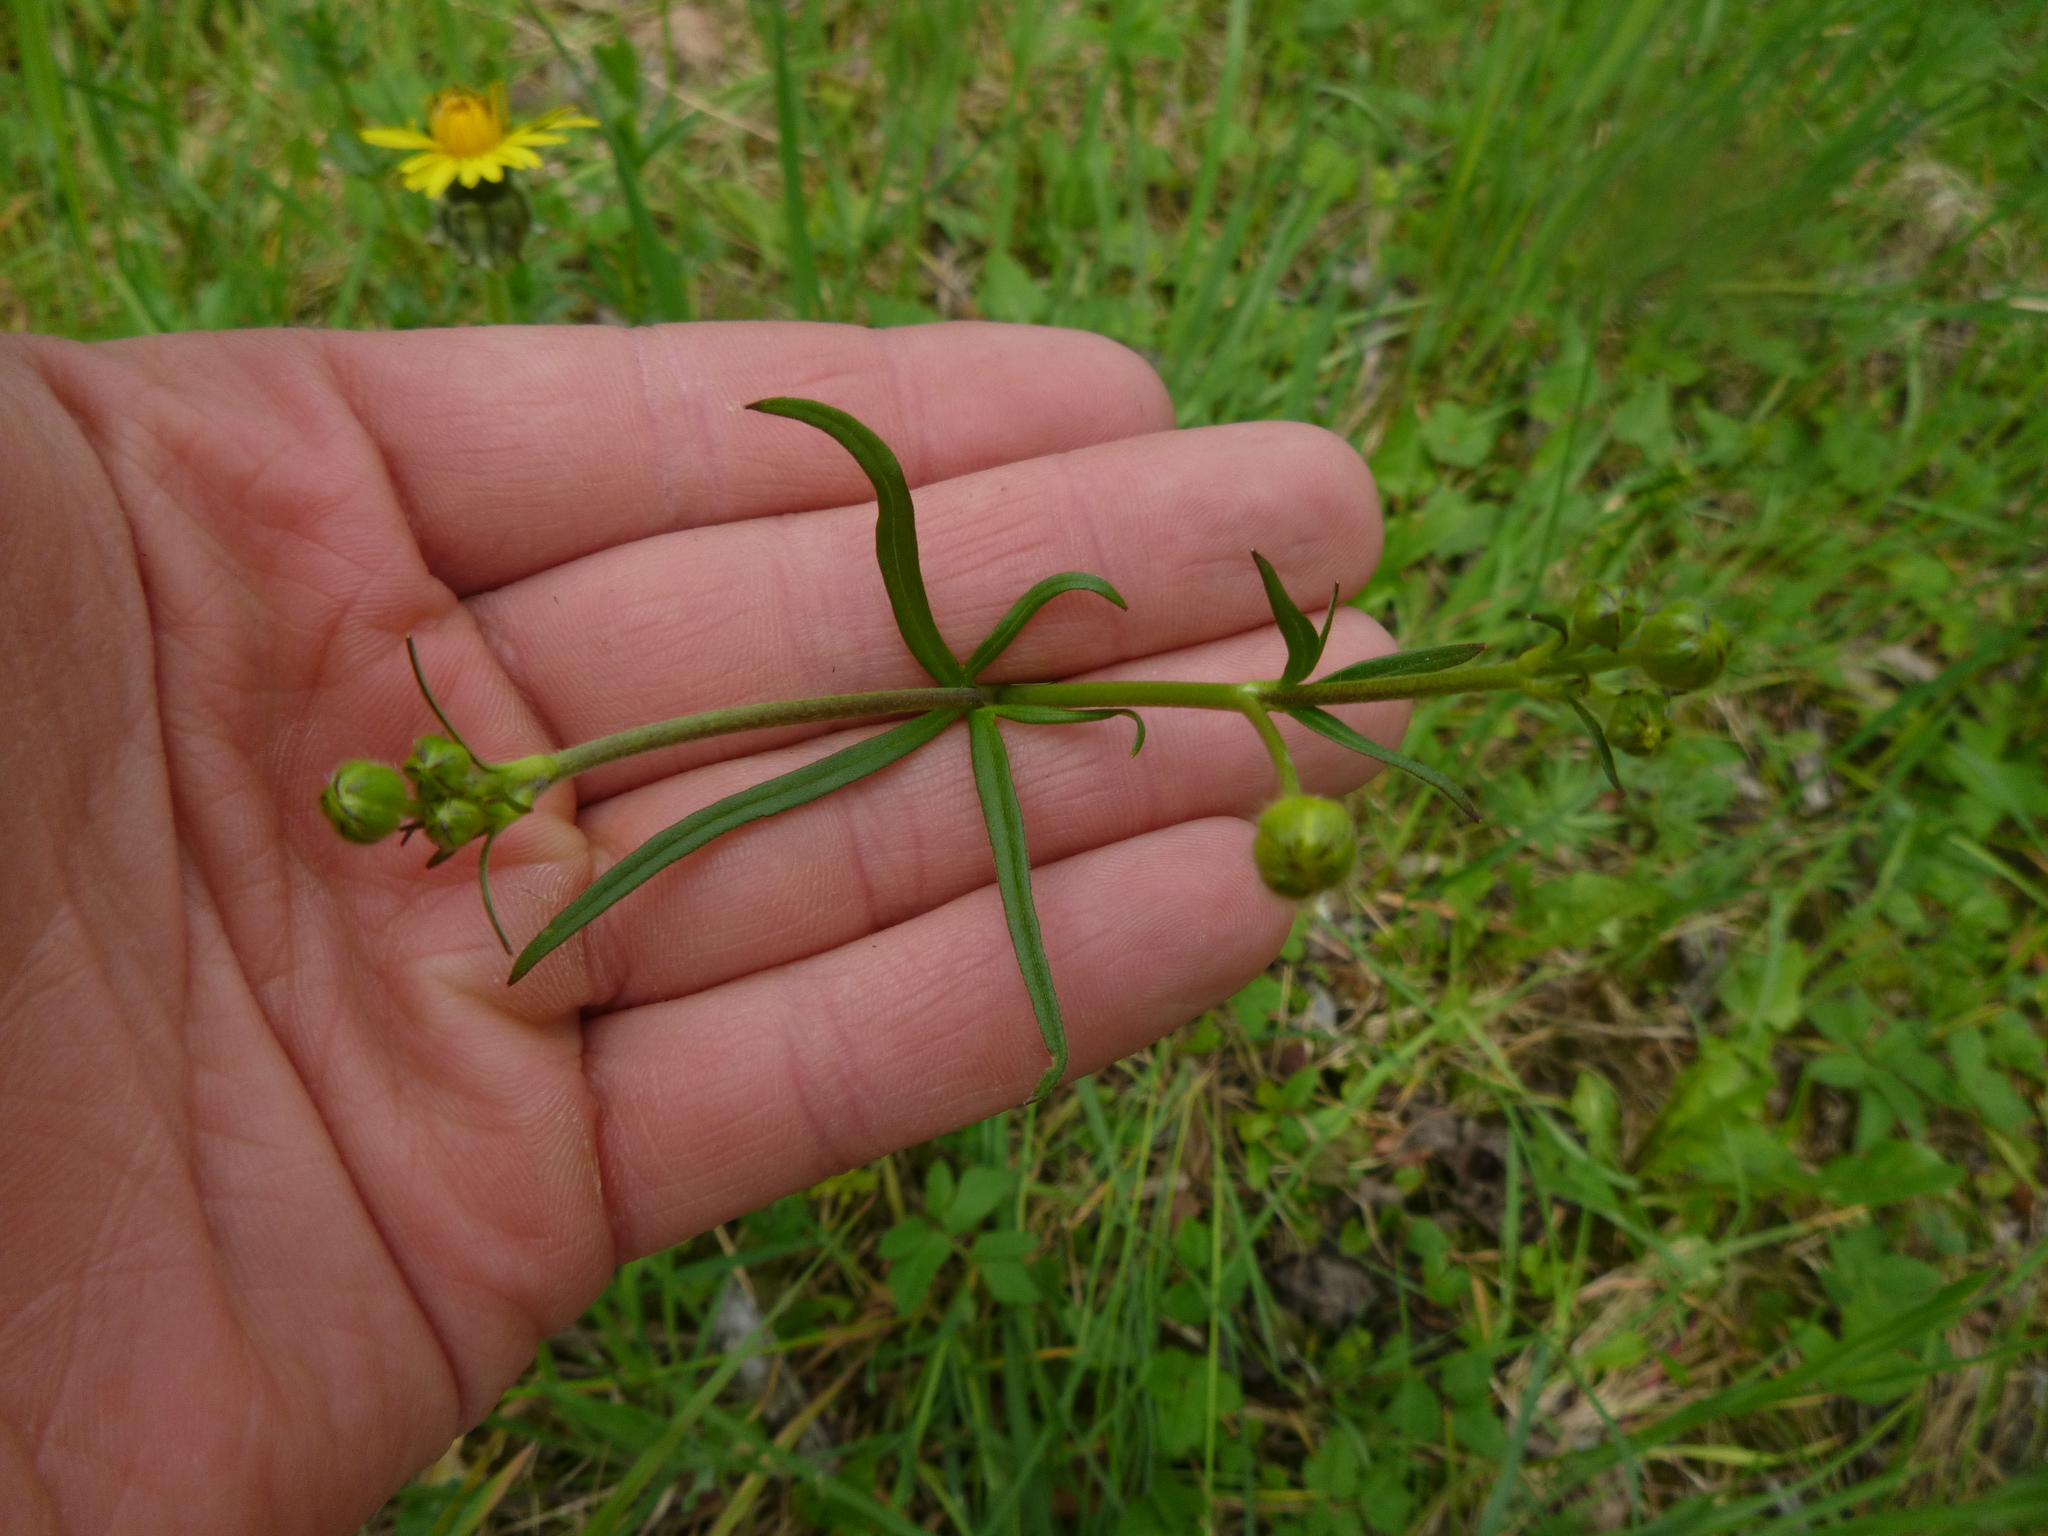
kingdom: Plantae
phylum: Tracheophyta
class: Magnoliopsida
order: Ranunculales
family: Ranunculaceae
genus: Ranunculus
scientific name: Ranunculus acris
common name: Meadow buttercup
